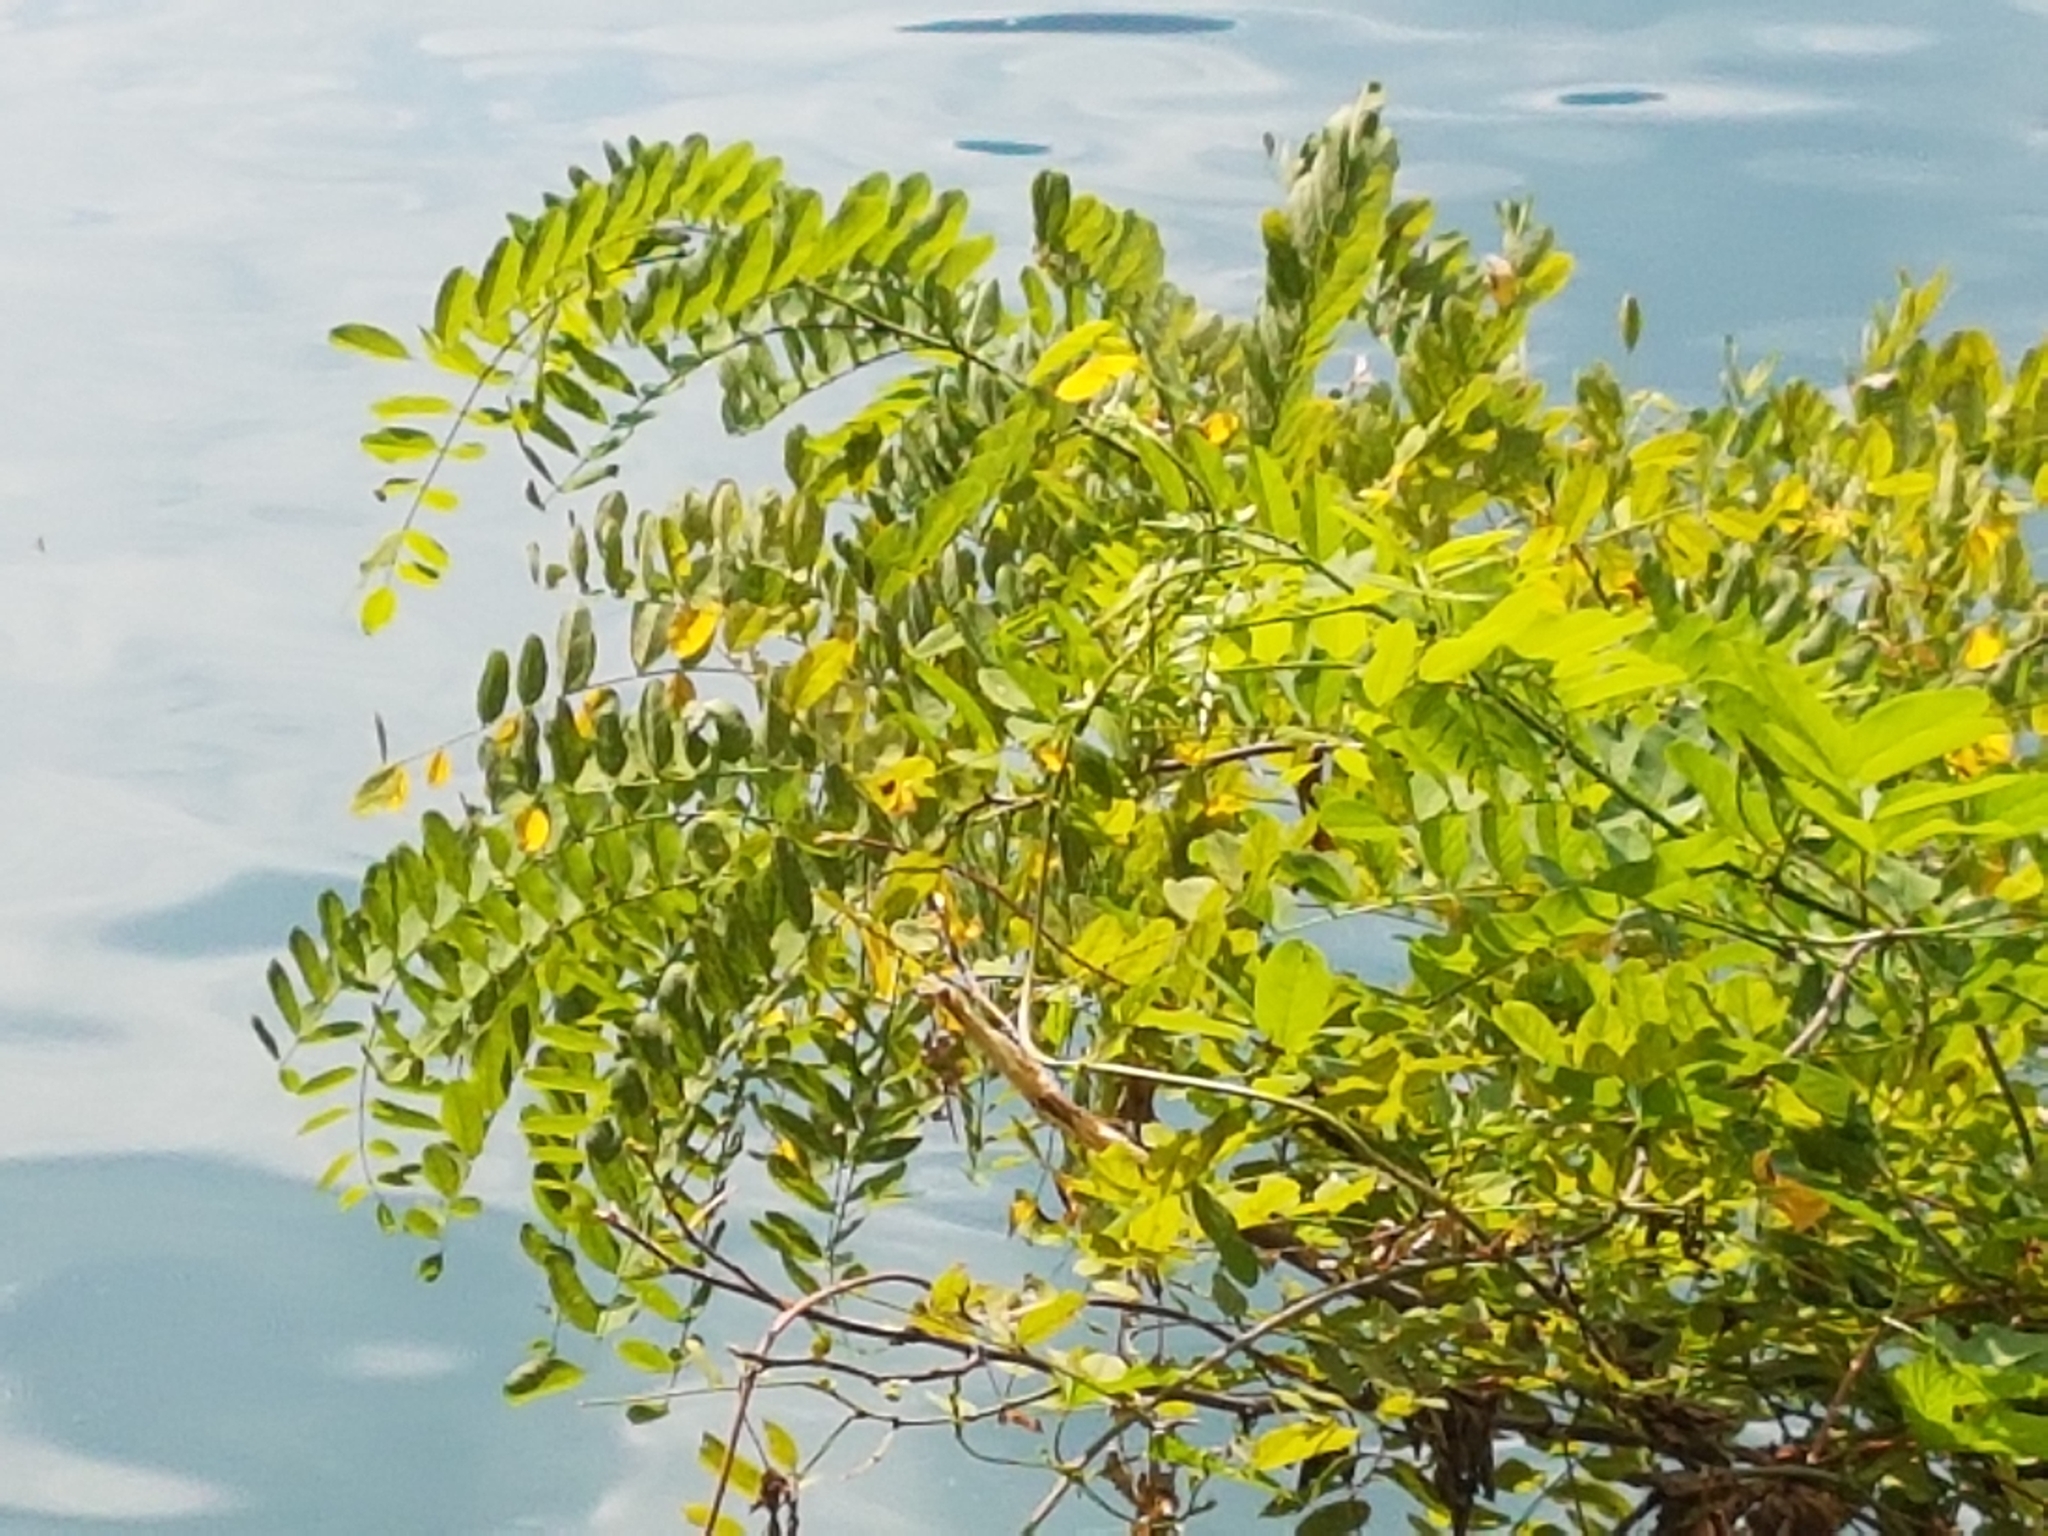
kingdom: Plantae
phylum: Tracheophyta
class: Magnoliopsida
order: Fabales
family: Fabaceae
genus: Robinia
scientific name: Robinia pseudoacacia
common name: Black locust
